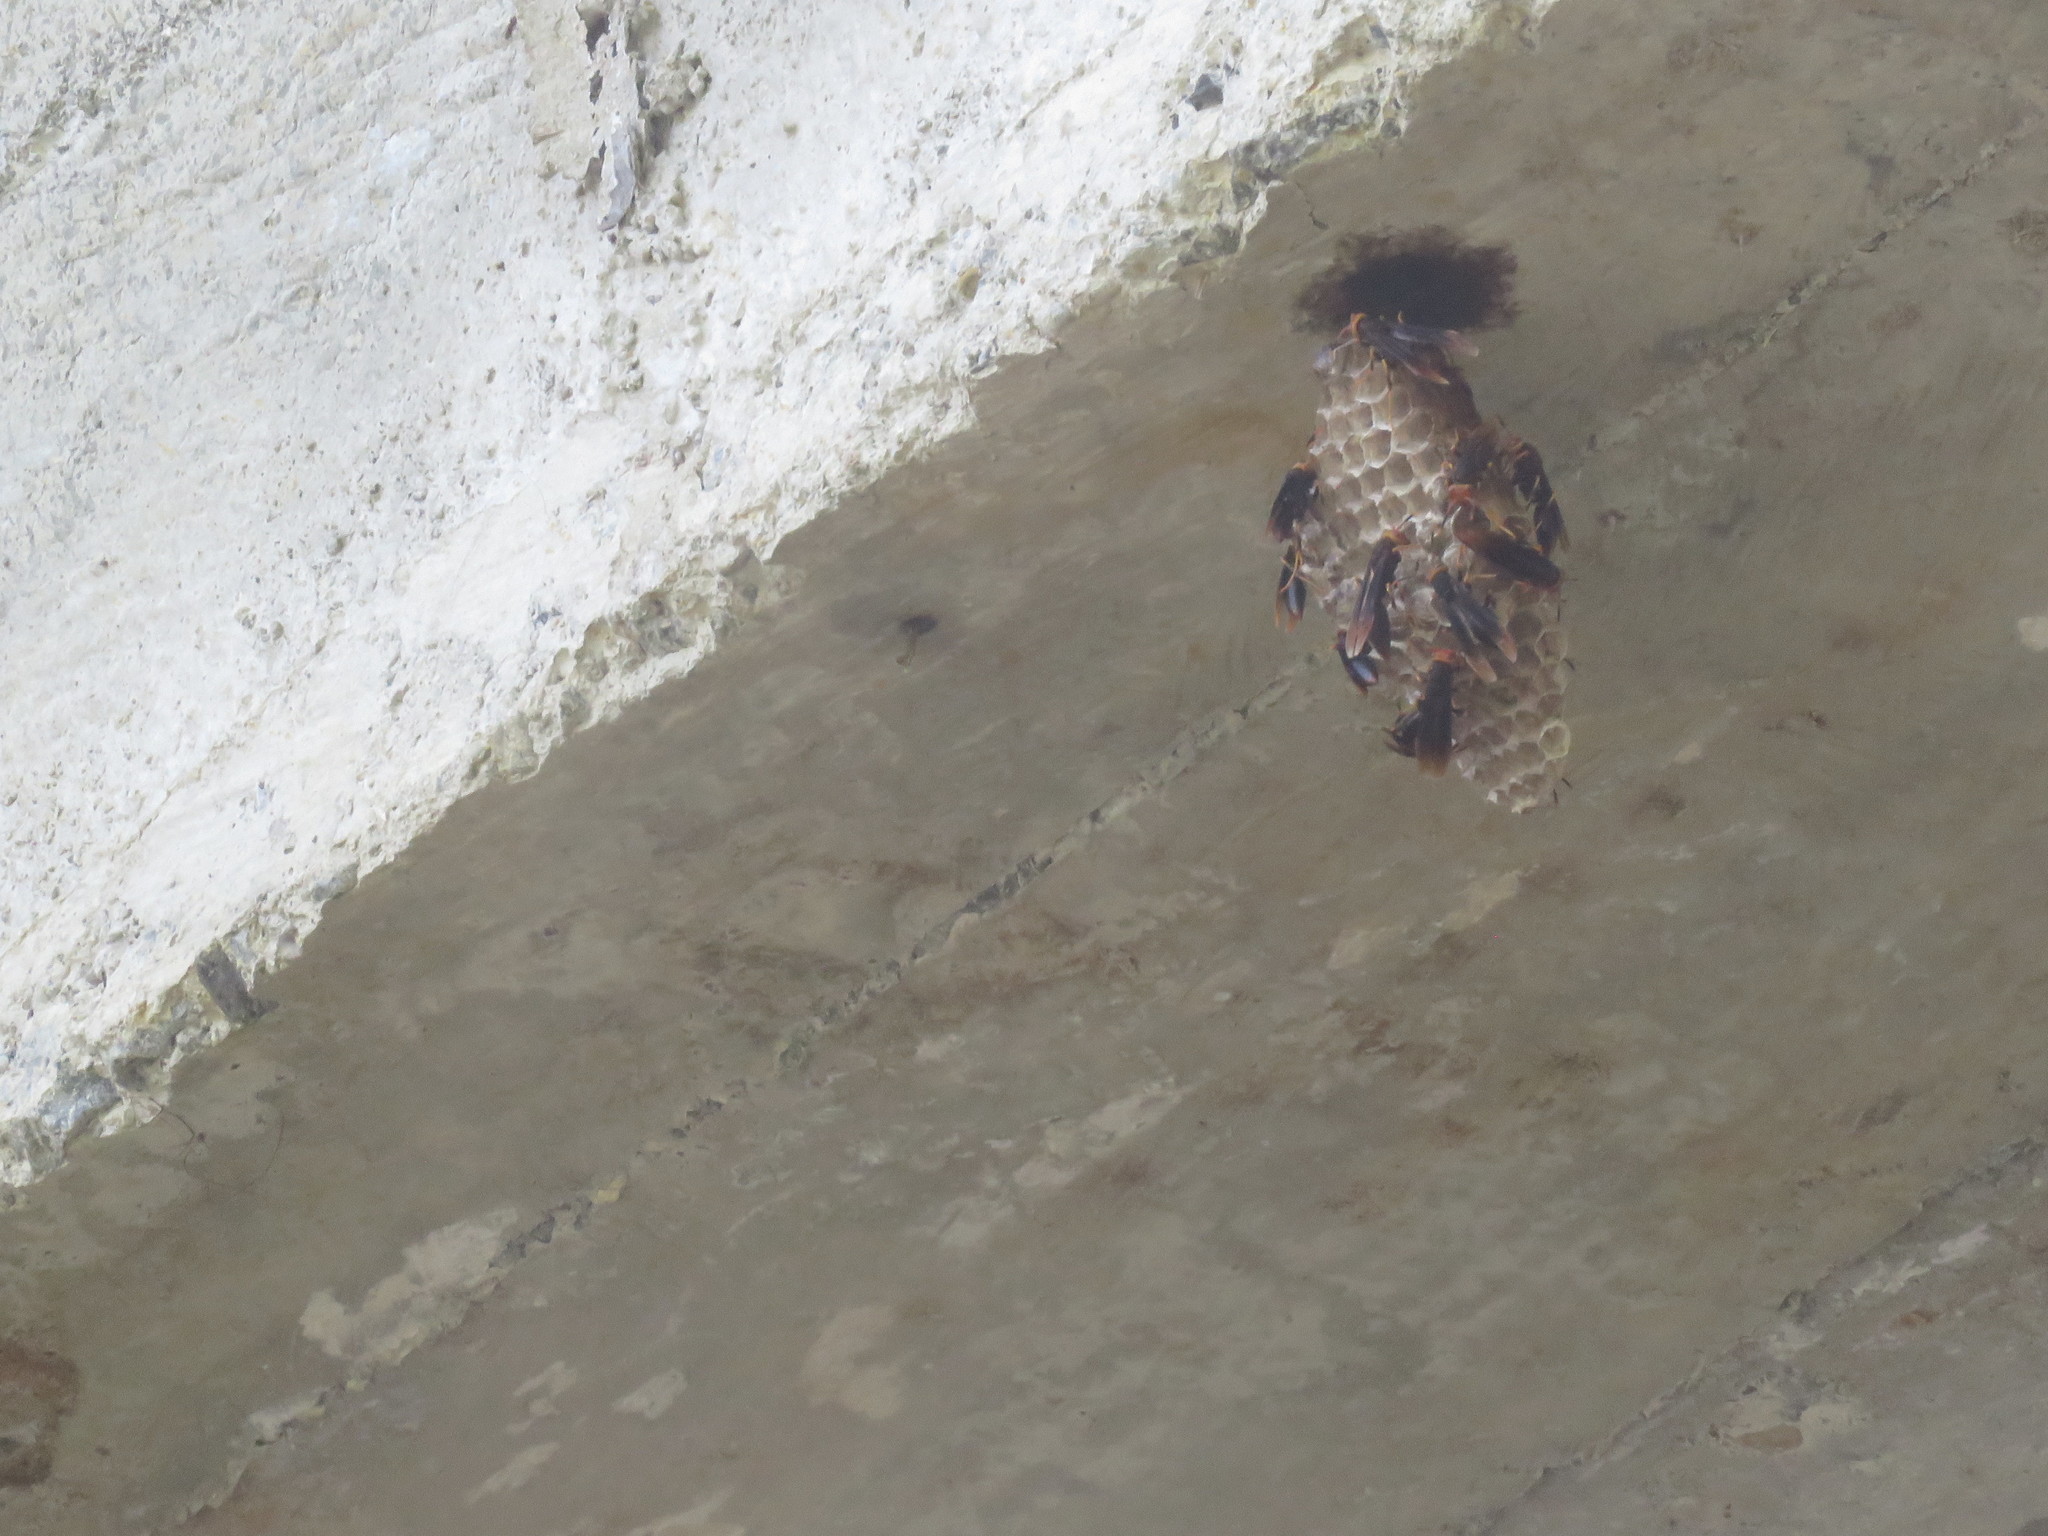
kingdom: Animalia
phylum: Arthropoda
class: Insecta
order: Hymenoptera
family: Eumenidae
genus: Polistes
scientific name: Polistes infuscatus
